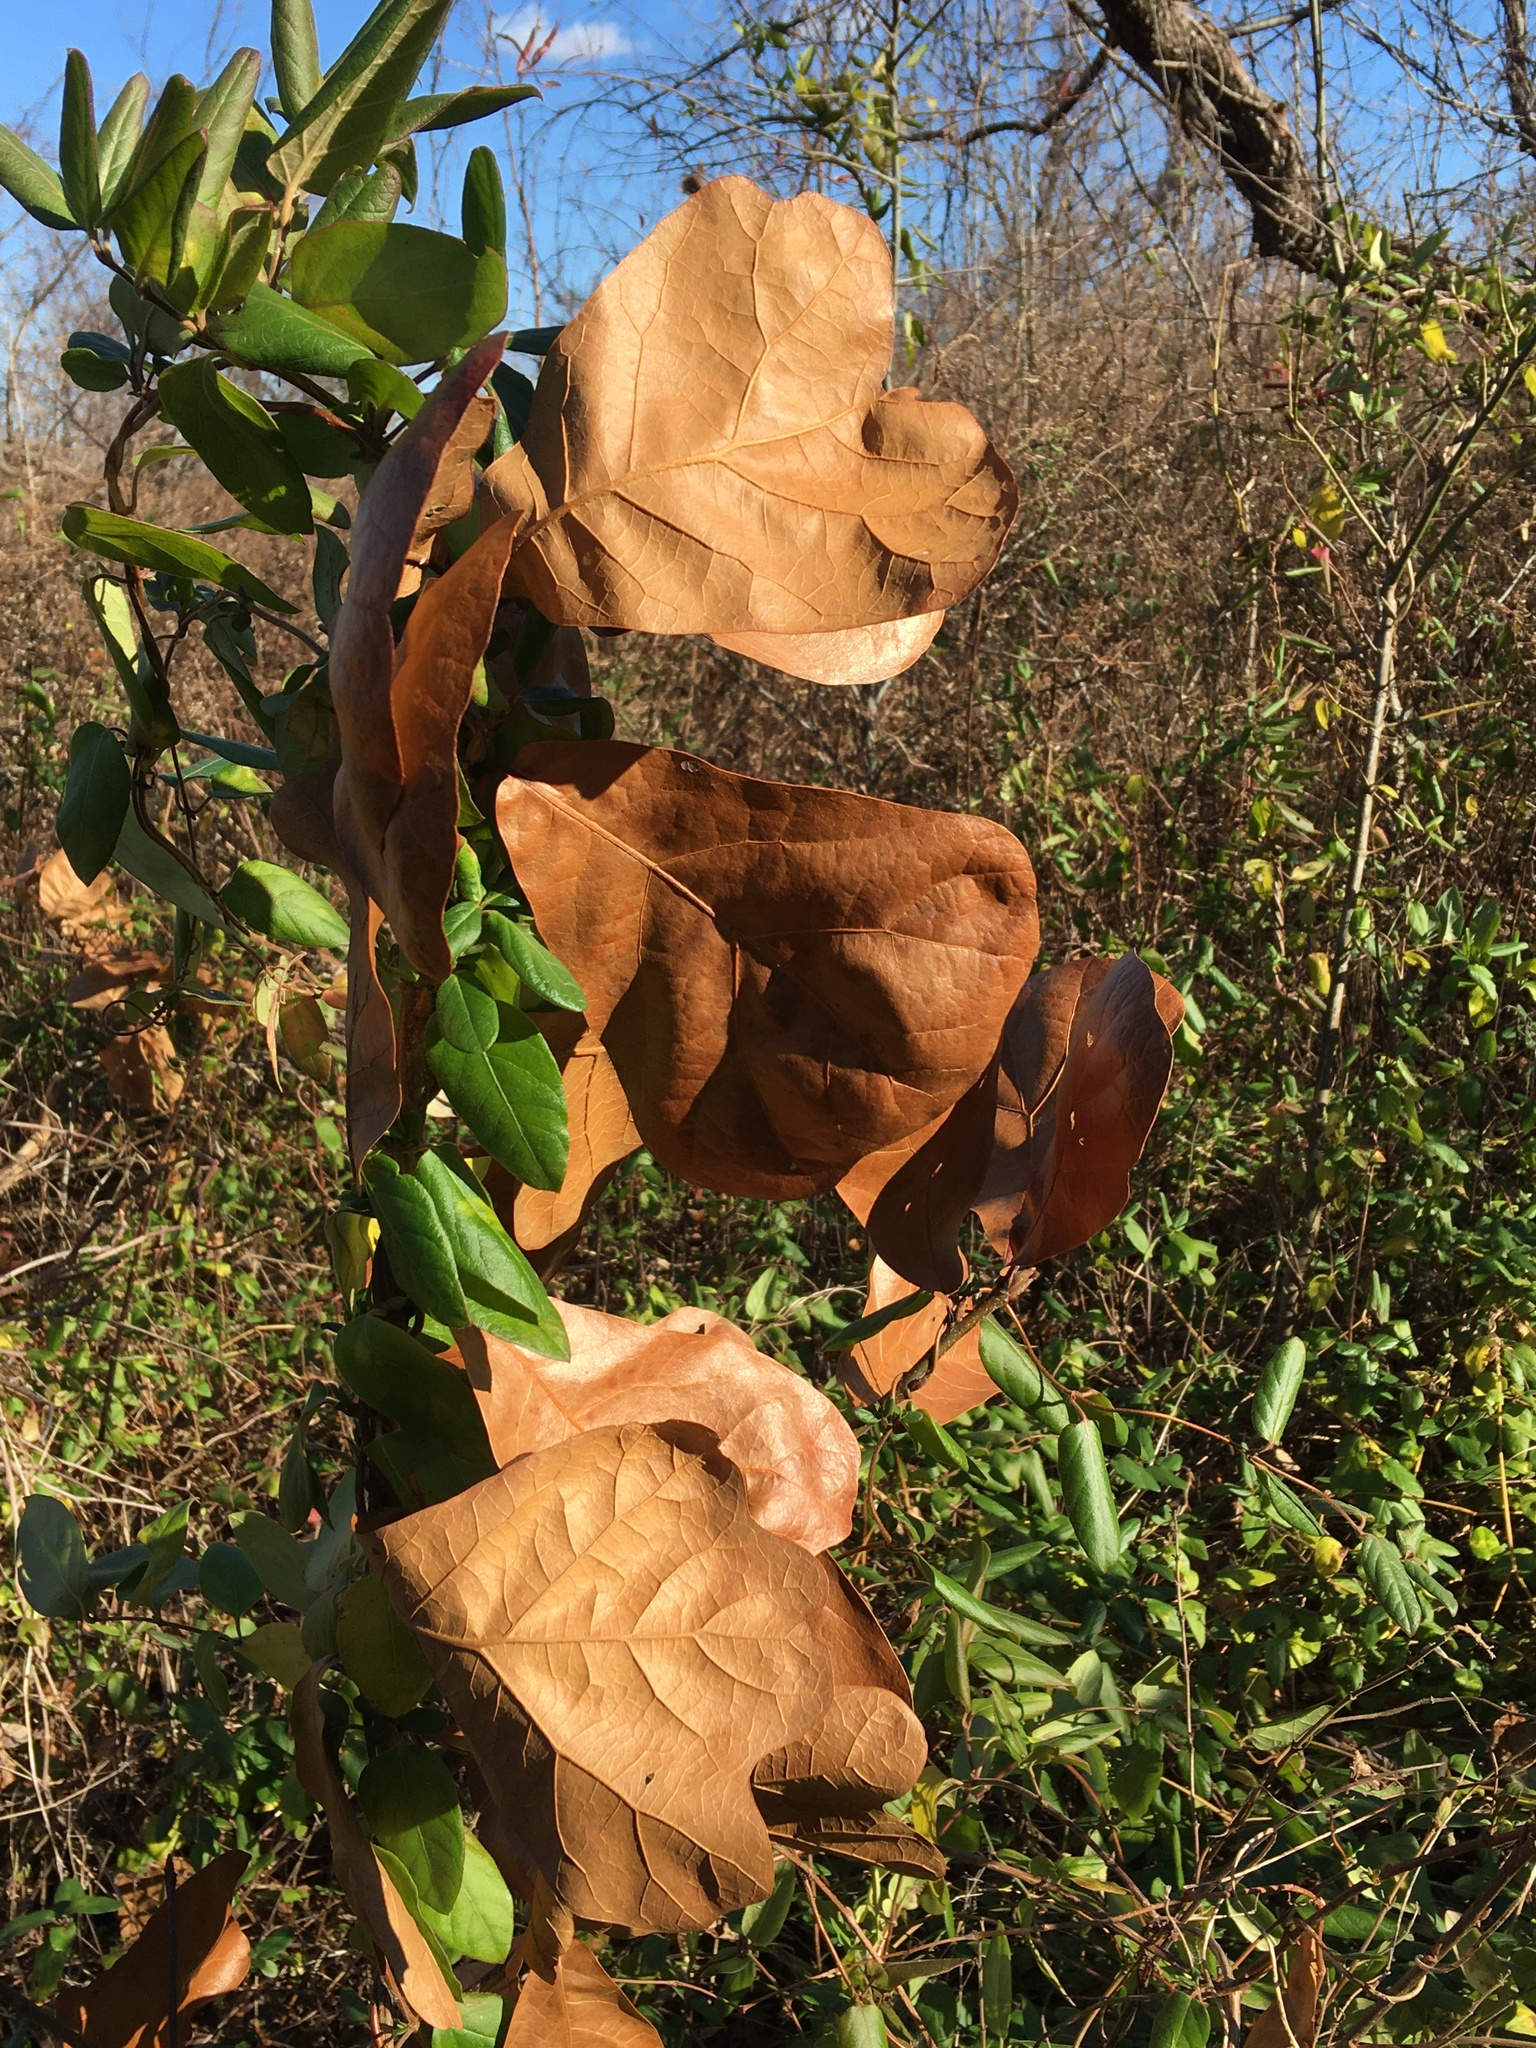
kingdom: Plantae
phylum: Tracheophyta
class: Magnoliopsida
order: Fagales
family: Fagaceae
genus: Quercus
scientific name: Quercus marilandica
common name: Blackjack oak
